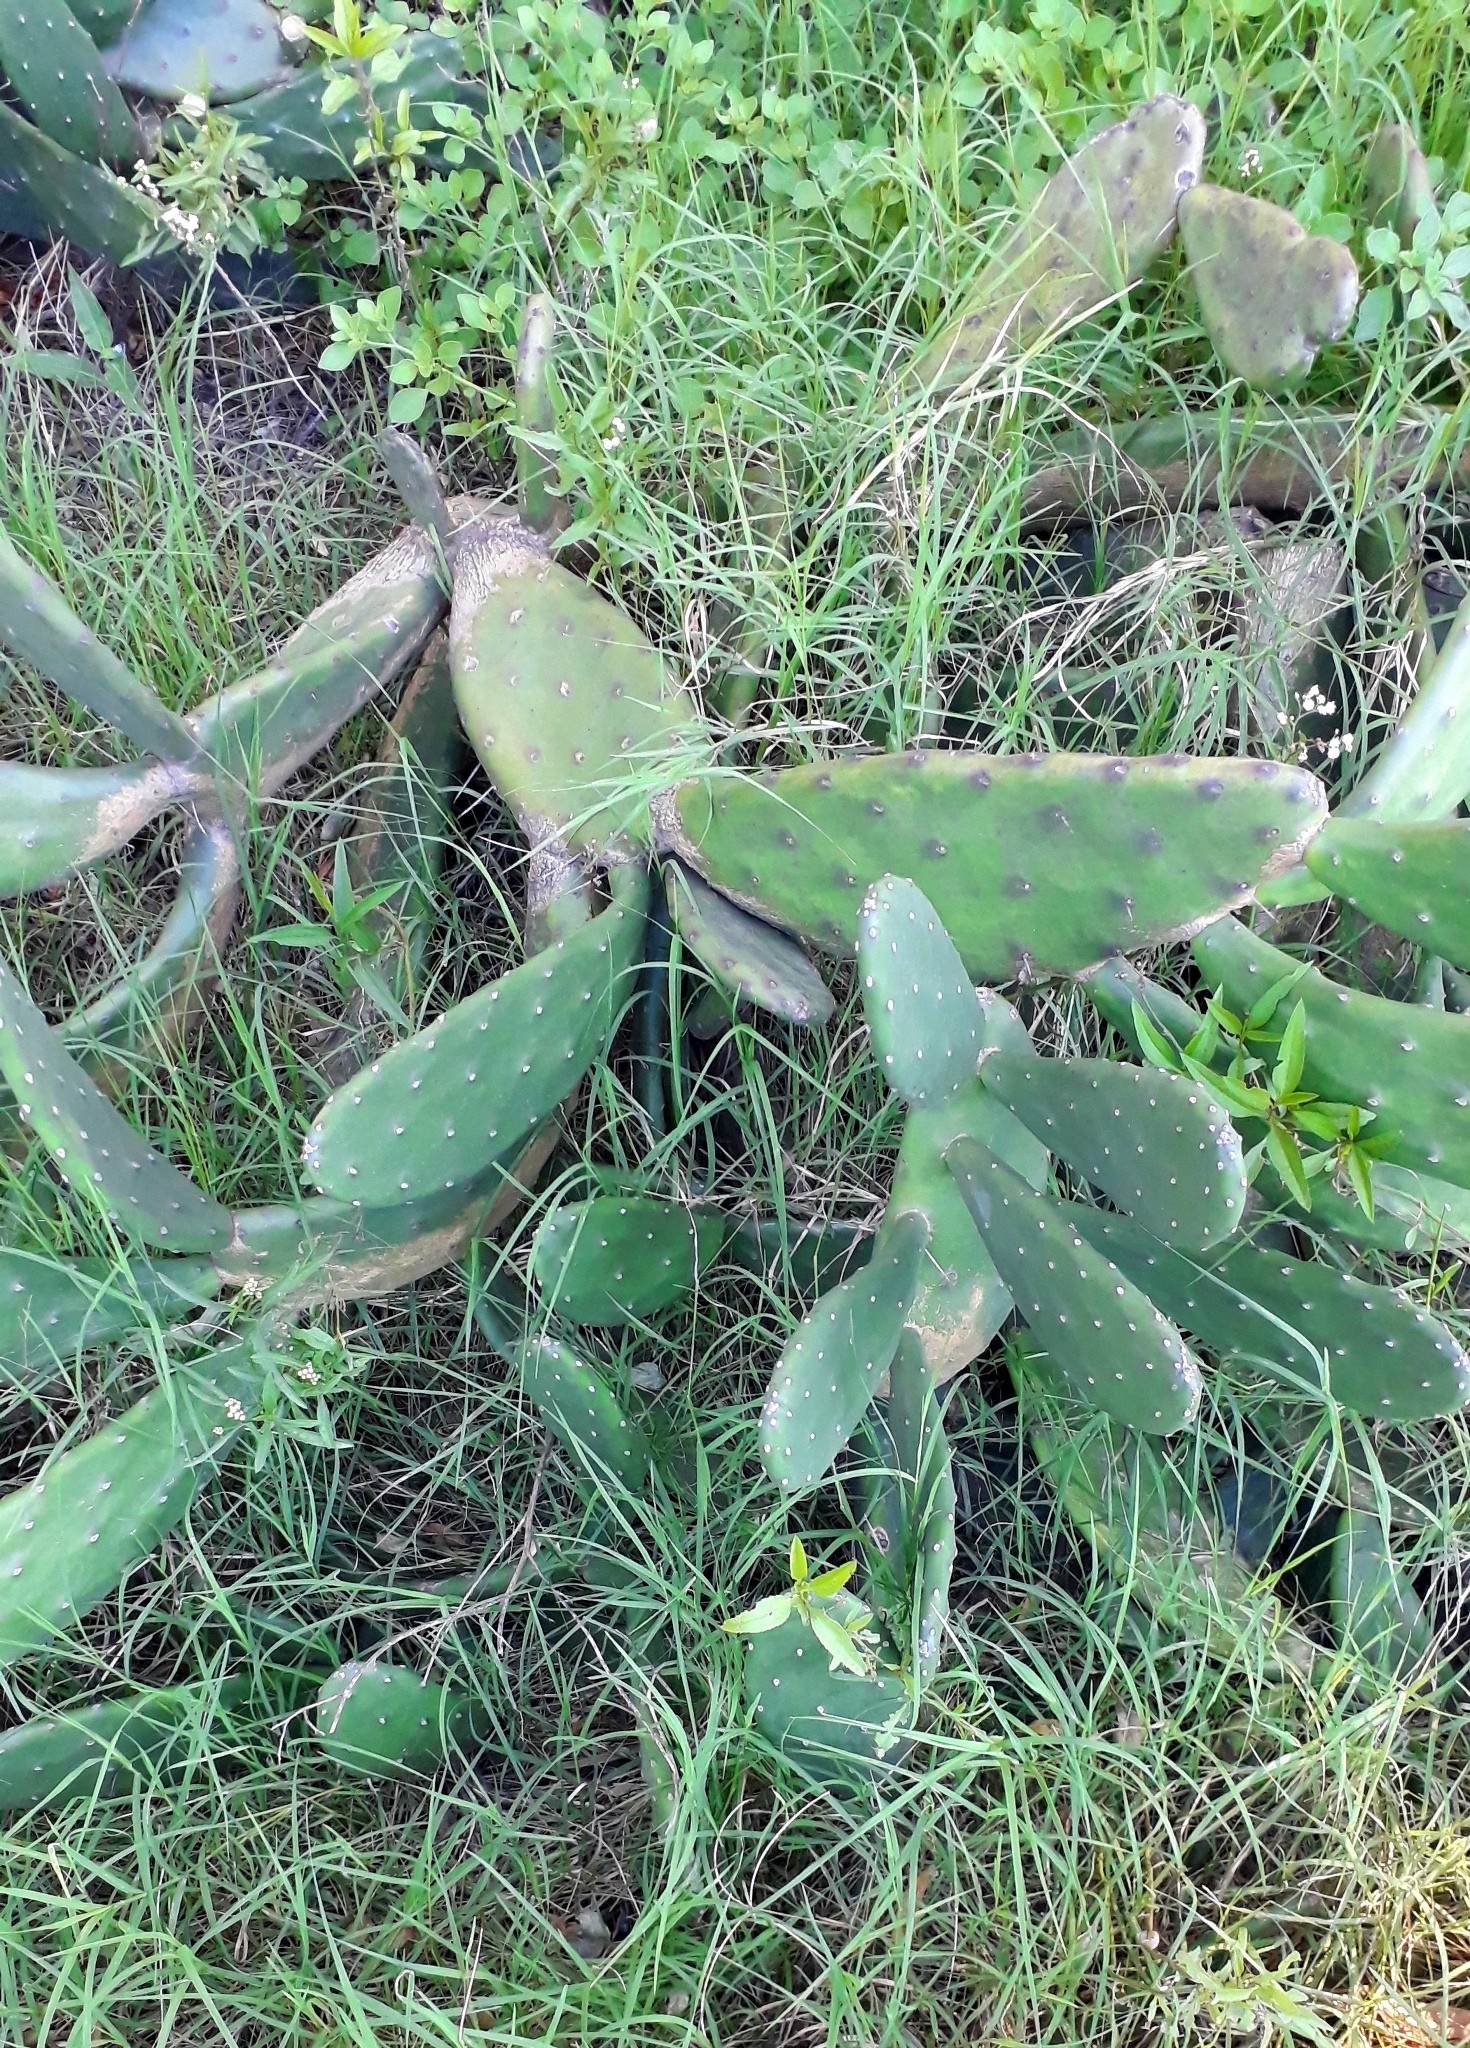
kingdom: Plantae
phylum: Tracheophyta
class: Magnoliopsida
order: Caryophyllales
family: Cactaceae
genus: Opuntia
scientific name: Opuntia elata
